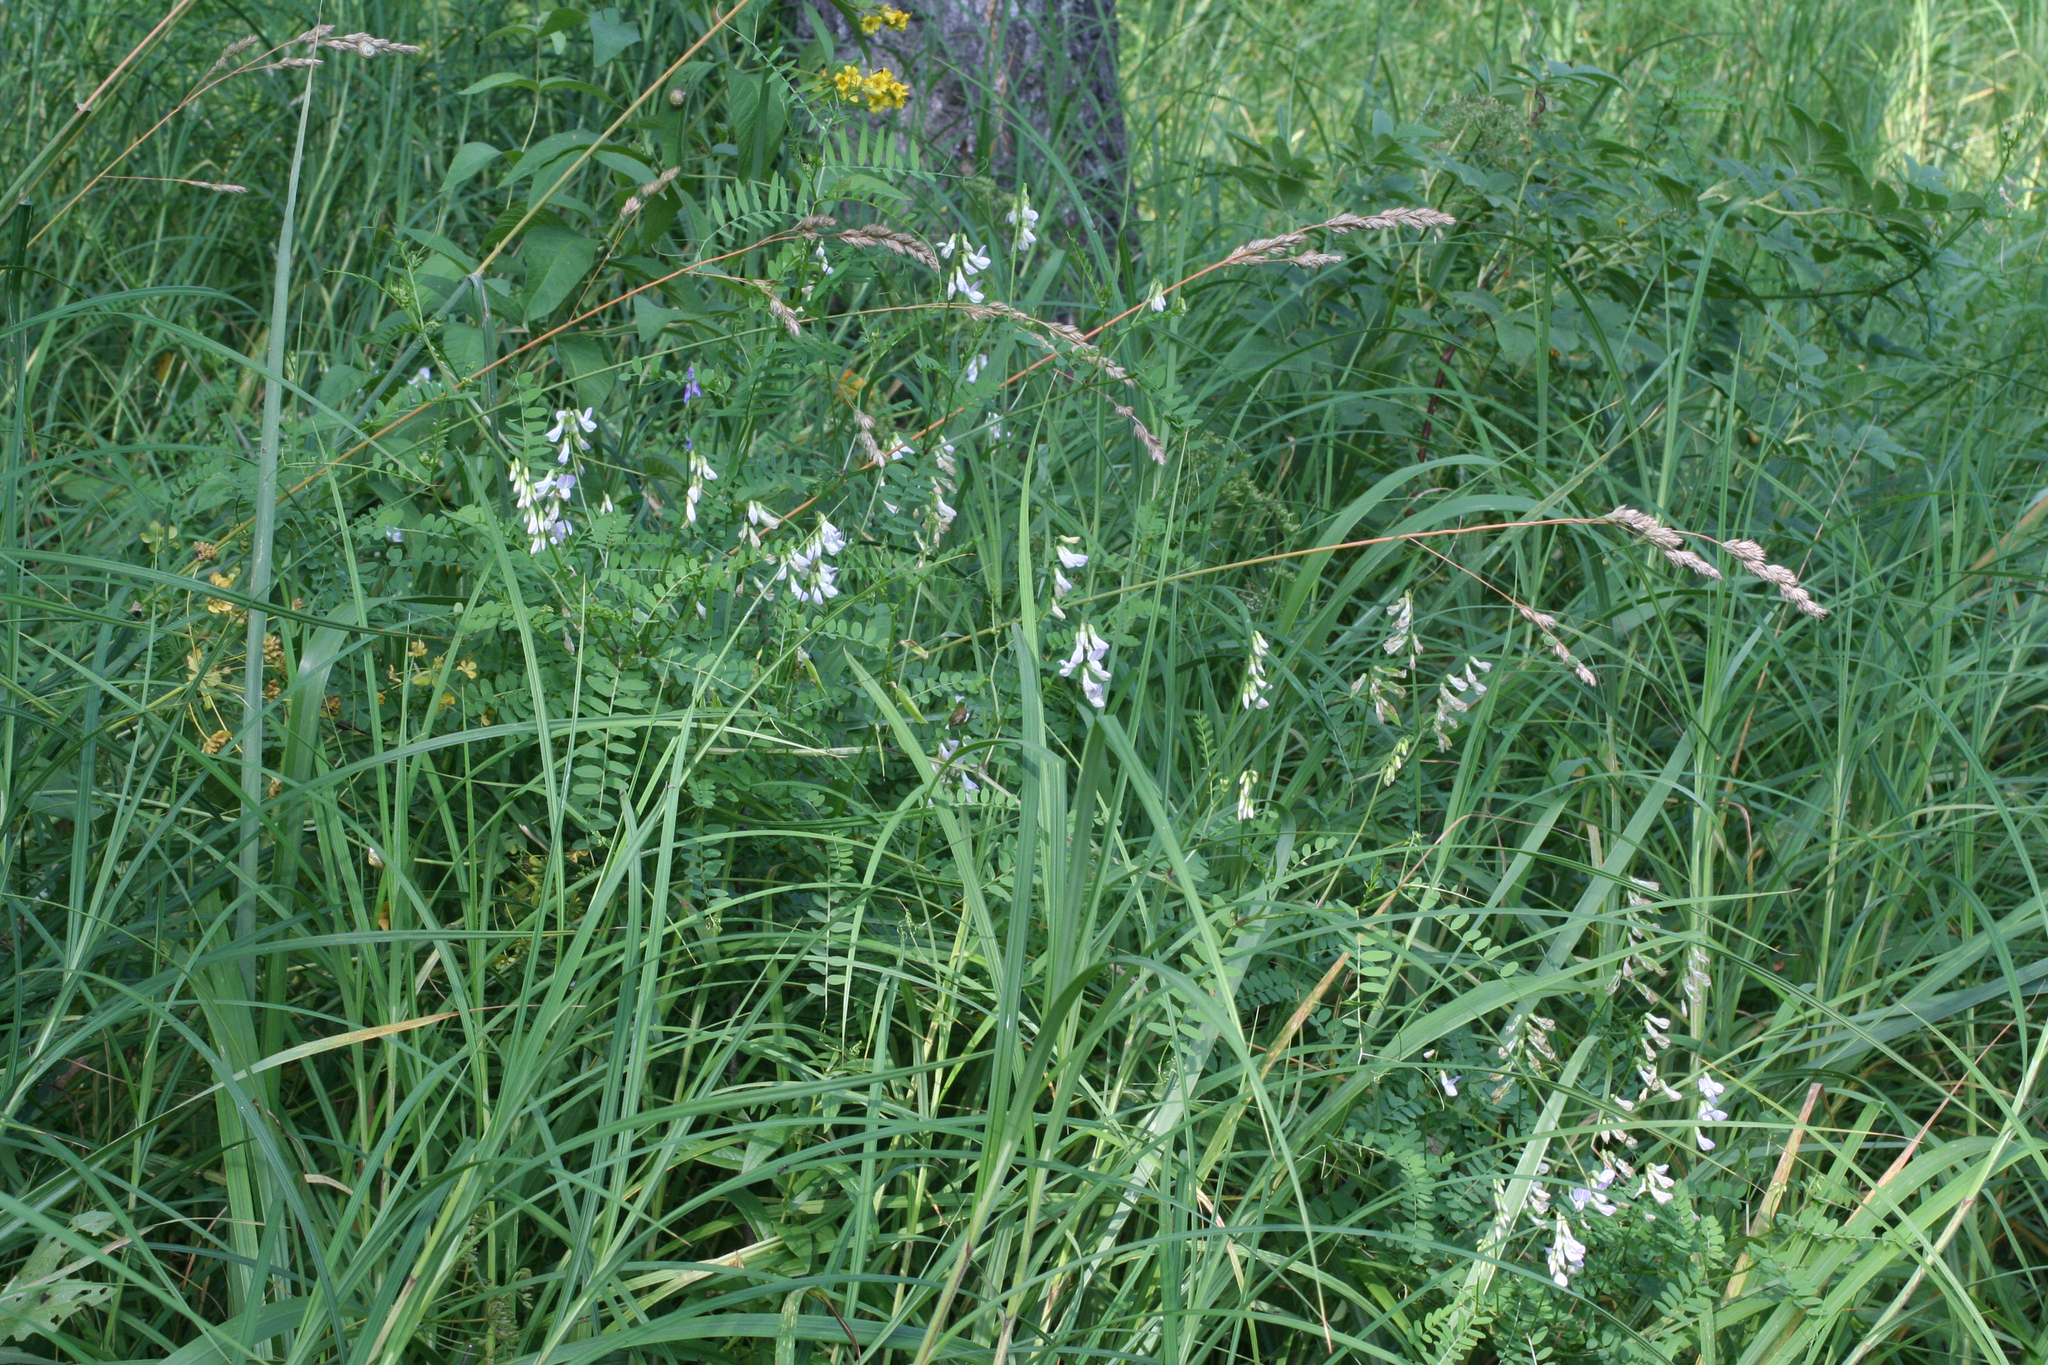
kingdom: Plantae
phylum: Tracheophyta
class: Magnoliopsida
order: Fabales
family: Fabaceae
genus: Vicia
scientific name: Vicia sylvatica
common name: Wood vetch
